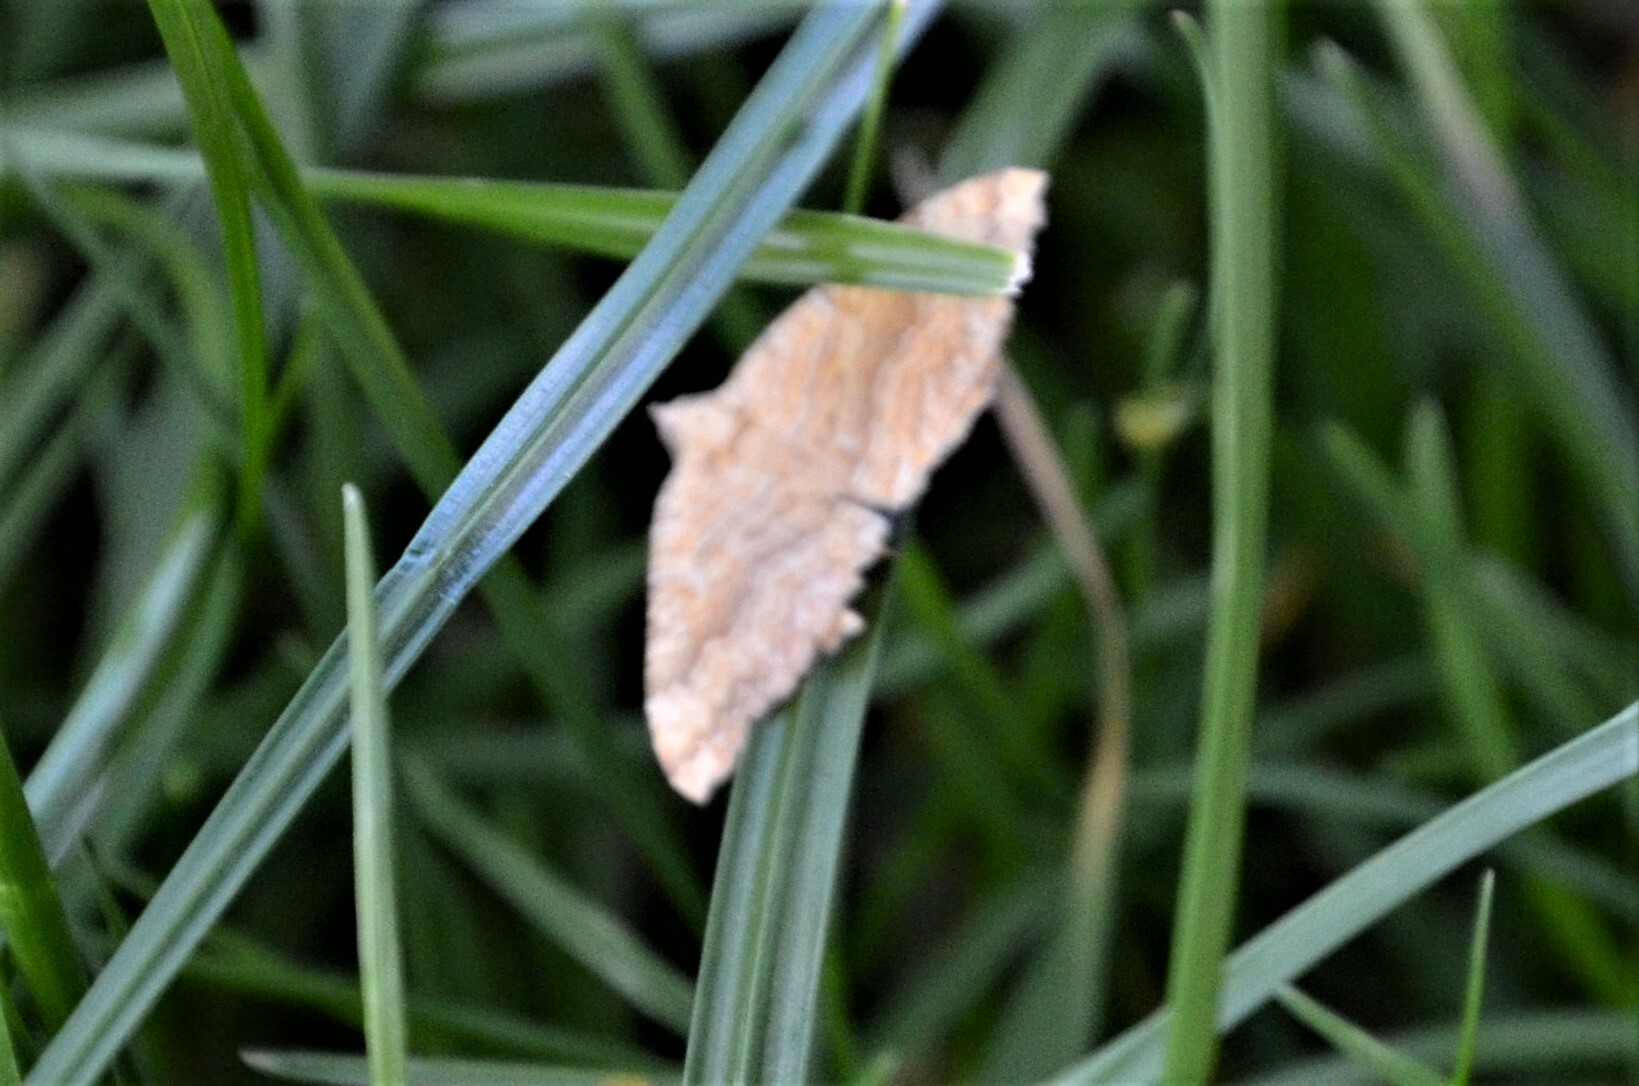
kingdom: Animalia
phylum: Arthropoda
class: Insecta
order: Lepidoptera
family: Geometridae
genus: Camptogramma
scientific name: Camptogramma bilineata
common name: Yellow shell
